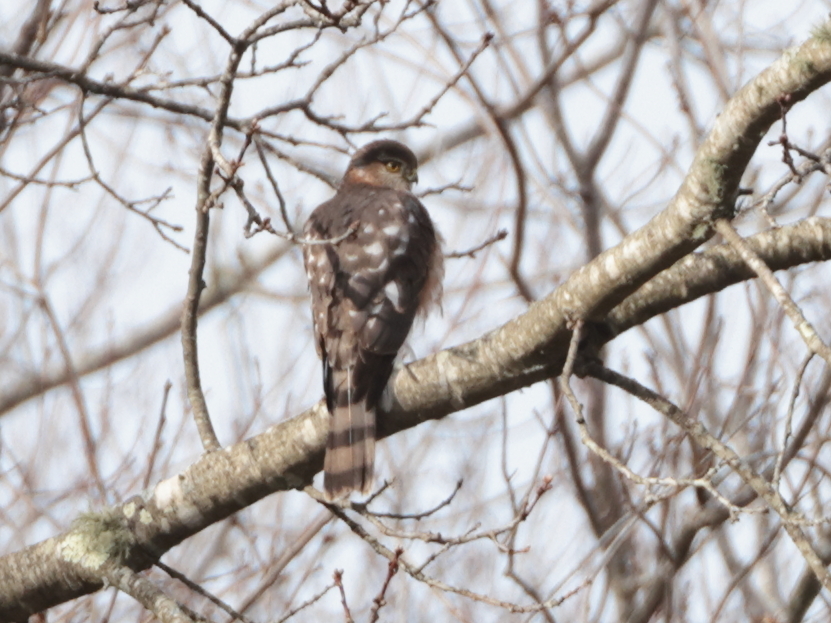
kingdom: Animalia
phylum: Chordata
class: Aves
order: Accipitriformes
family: Accipitridae
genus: Accipiter
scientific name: Accipiter striatus
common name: Sharp-shinned hawk
